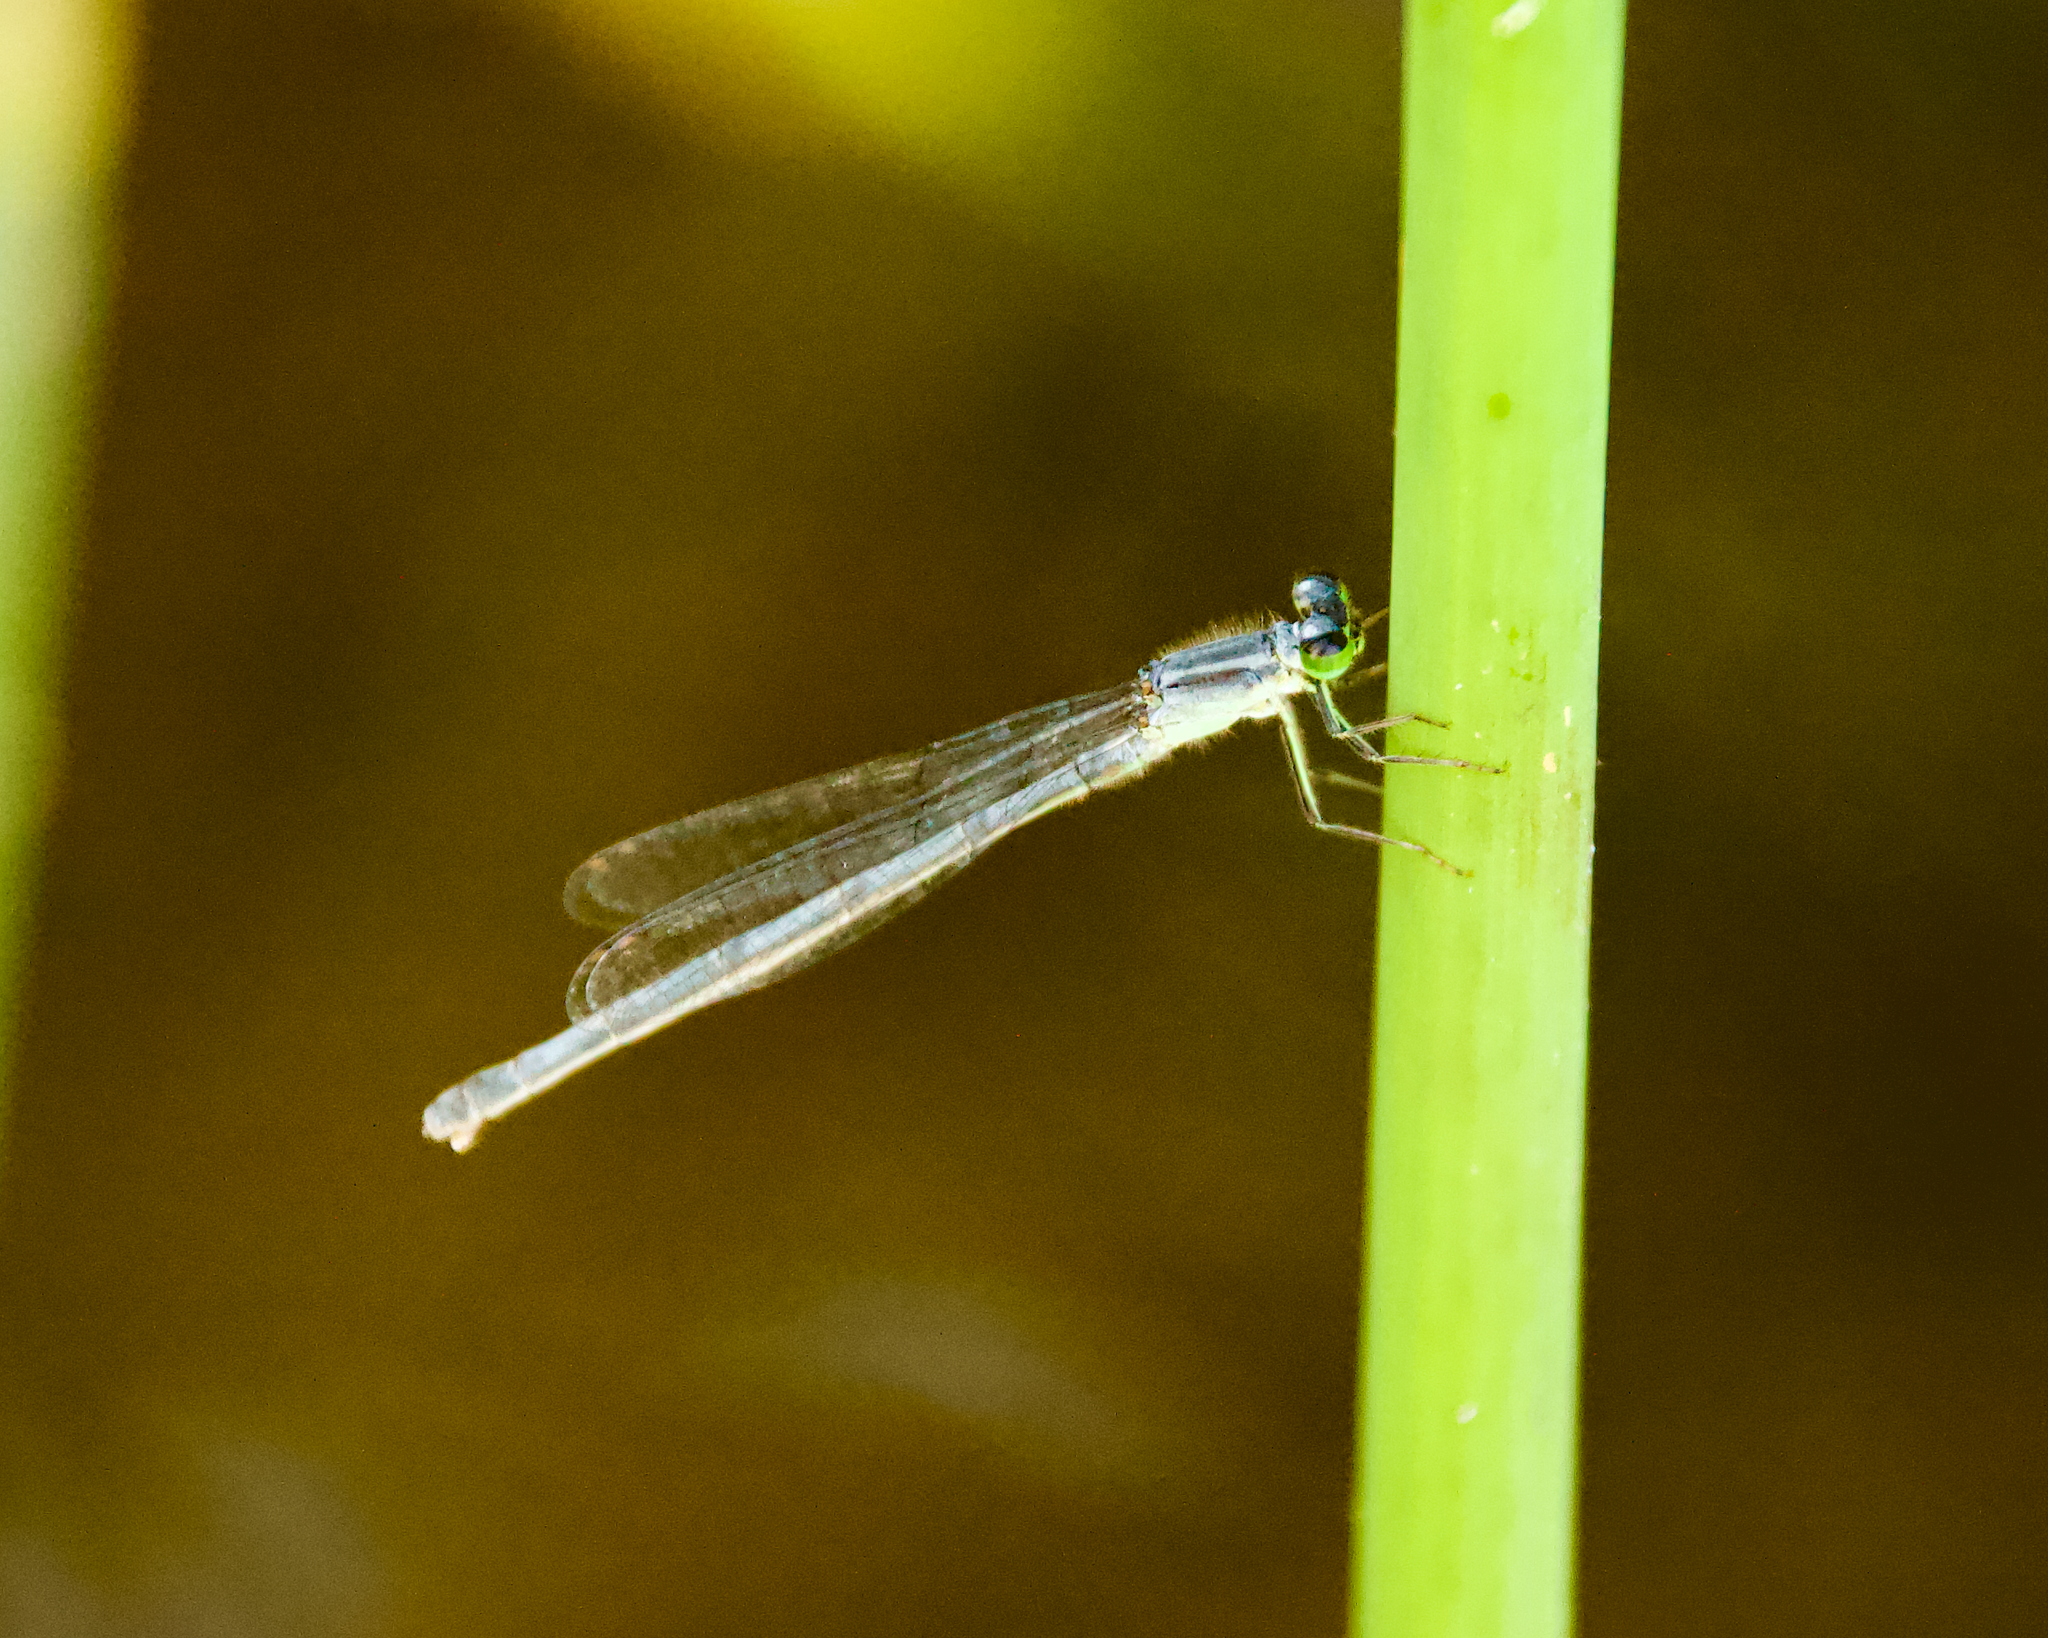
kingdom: Animalia
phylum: Arthropoda
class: Insecta
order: Odonata
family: Coenagrionidae
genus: Ischnura
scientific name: Ischnura verticalis
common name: Eastern forktail
